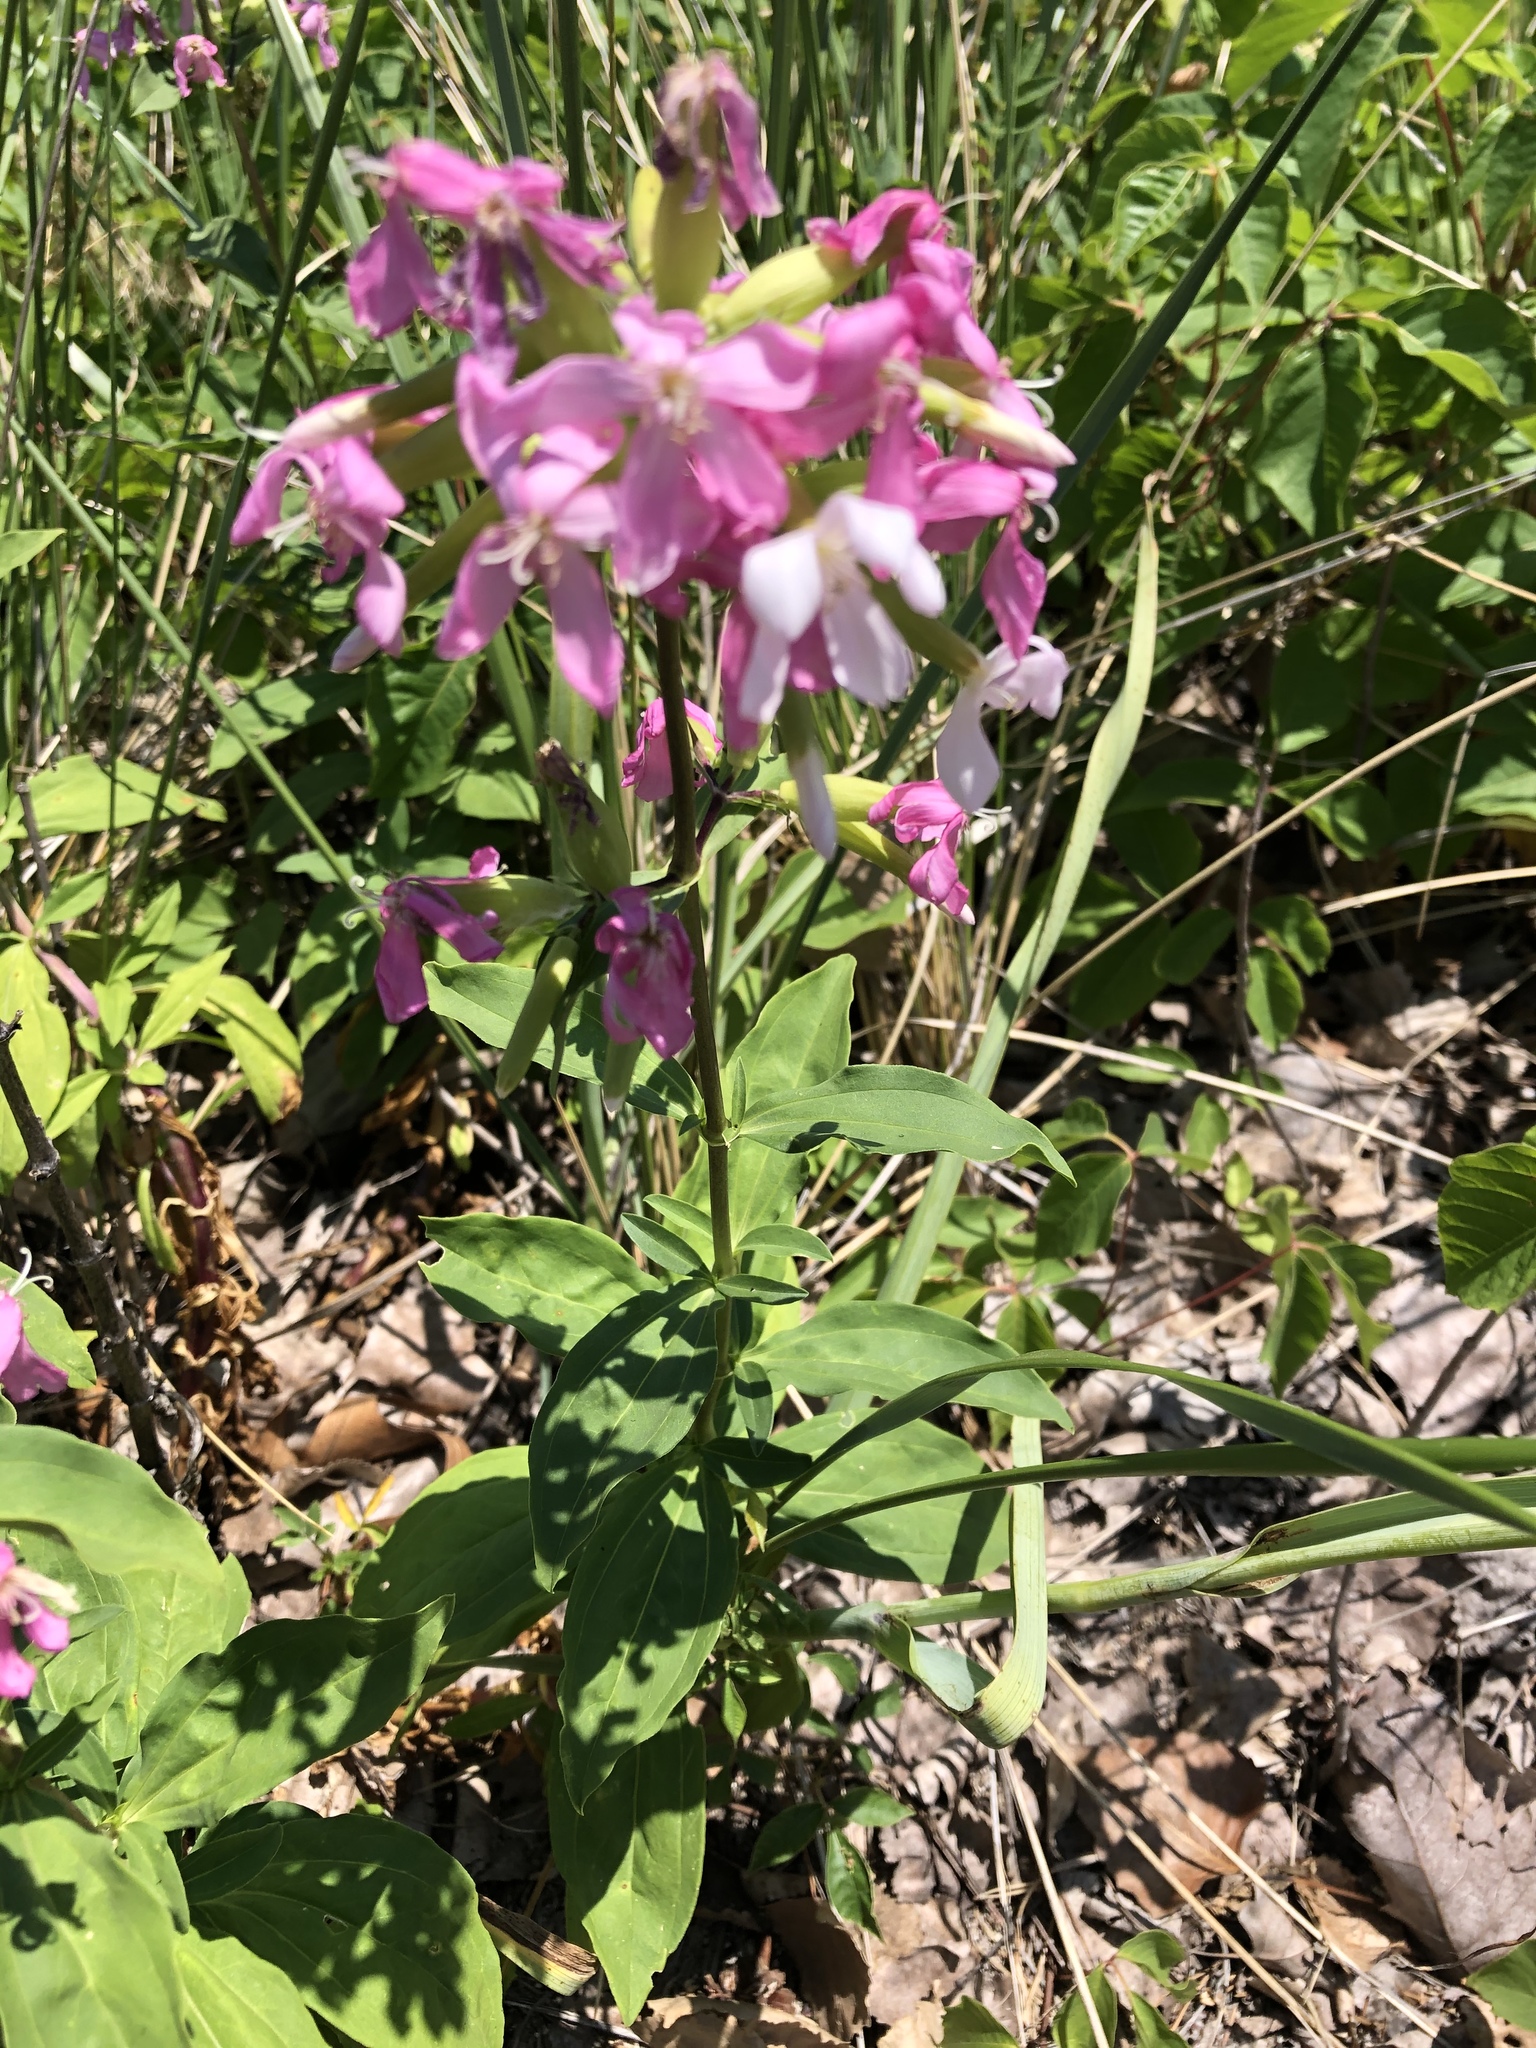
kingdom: Plantae
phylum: Tracheophyta
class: Magnoliopsida
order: Caryophyllales
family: Caryophyllaceae
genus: Saponaria
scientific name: Saponaria officinalis
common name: Soapwort
